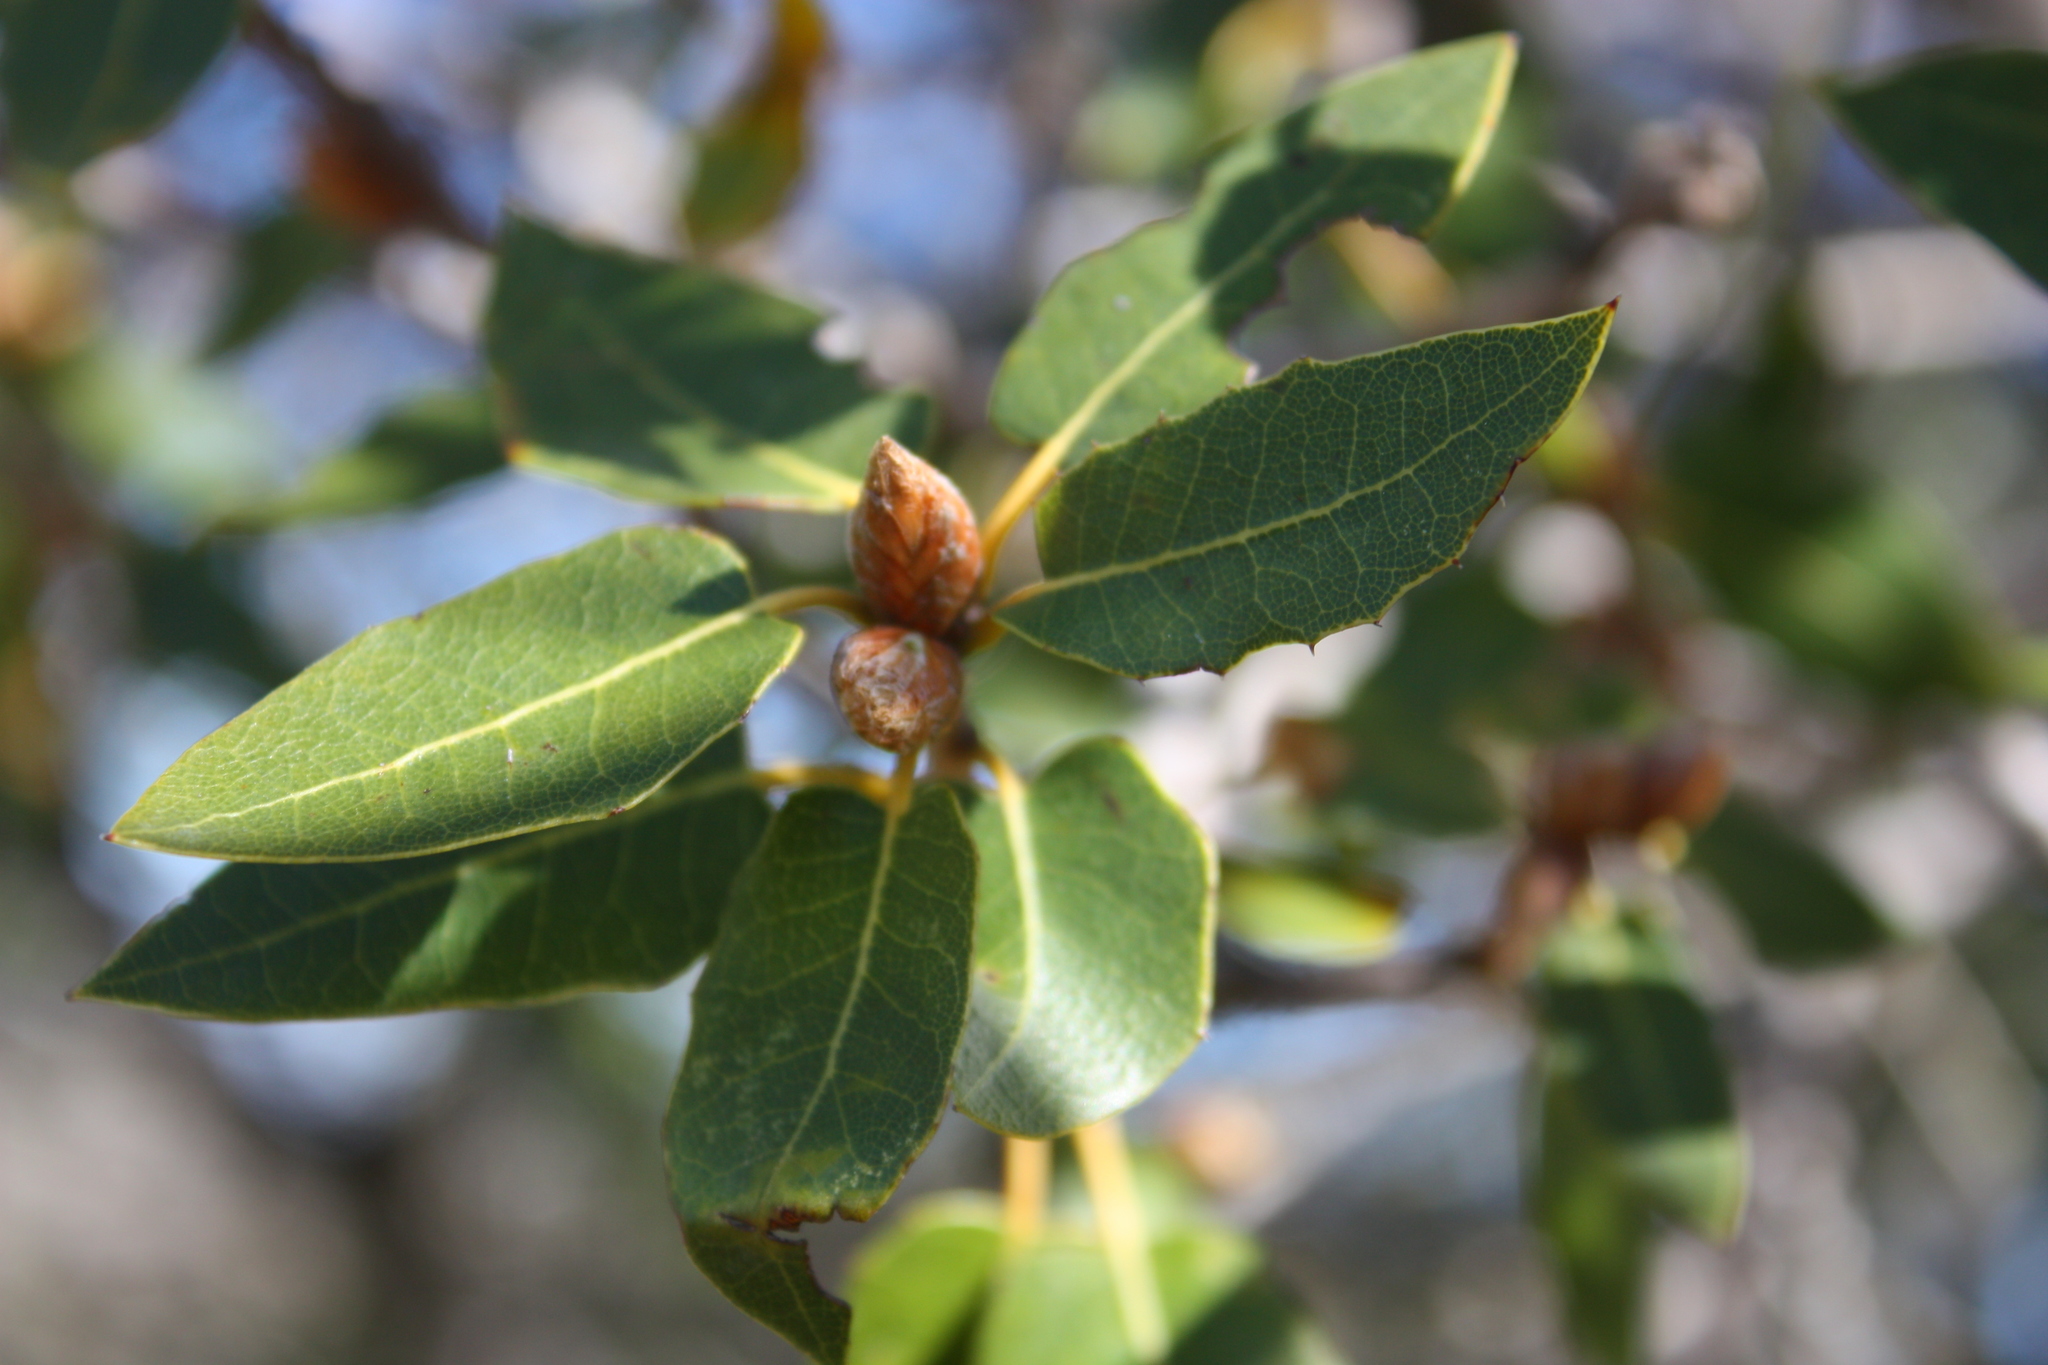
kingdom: Plantae
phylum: Tracheophyta
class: Magnoliopsida
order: Fagales
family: Fagaceae
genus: Quercus
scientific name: Quercus wislizeni
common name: Interior live oak
